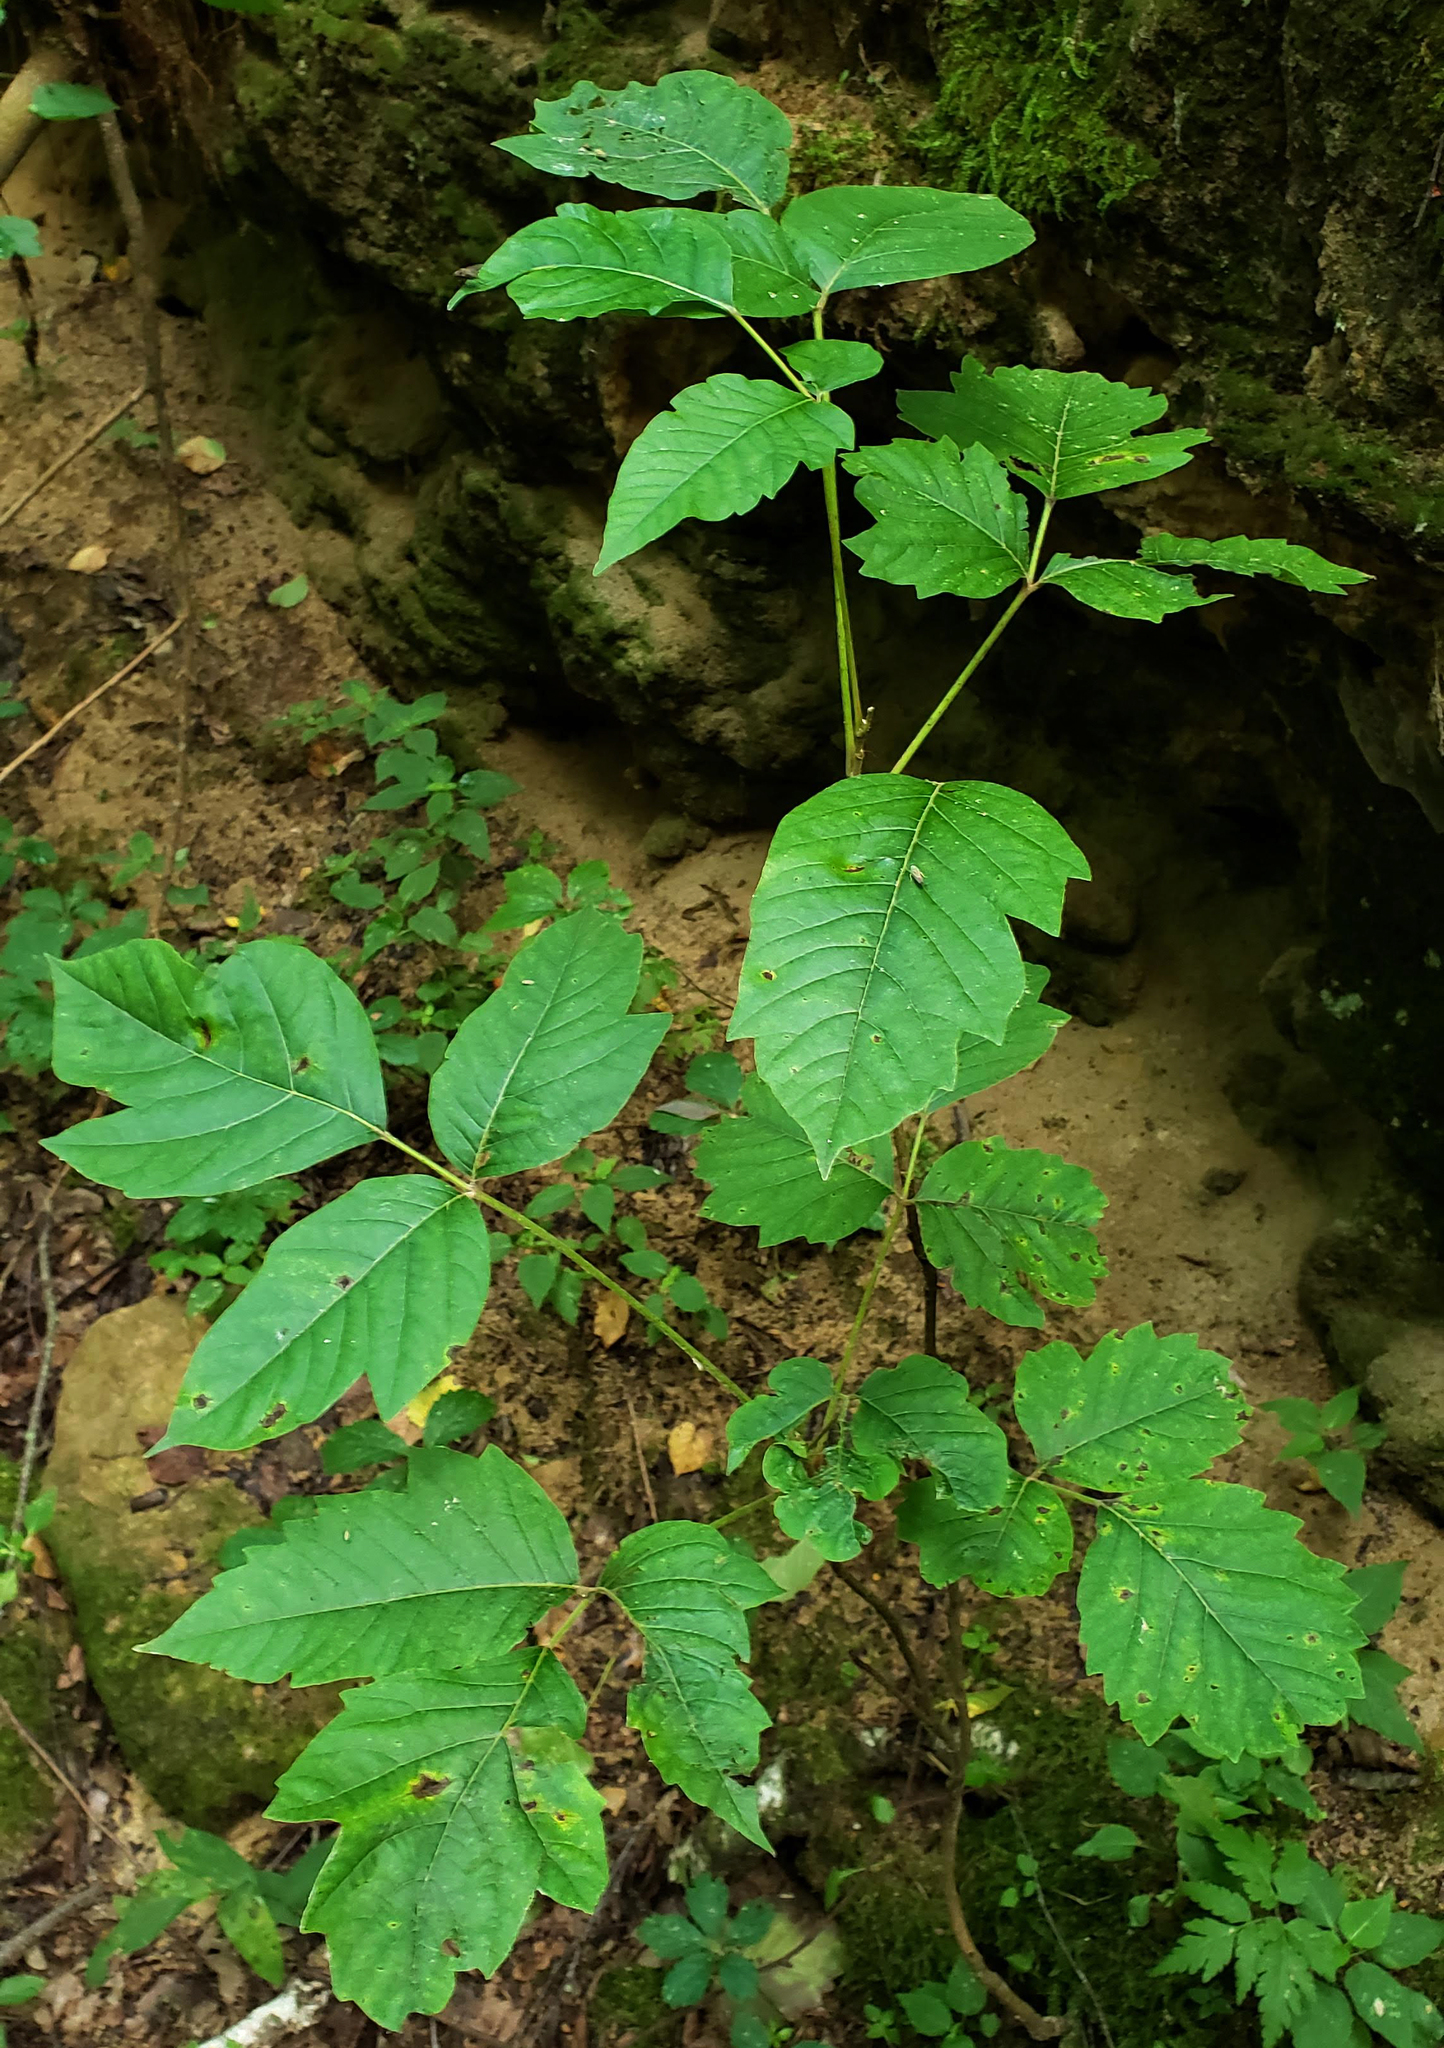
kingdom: Plantae
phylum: Tracheophyta
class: Magnoliopsida
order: Sapindales
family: Anacardiaceae
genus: Toxicodendron
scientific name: Toxicodendron radicans
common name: Poison ivy
